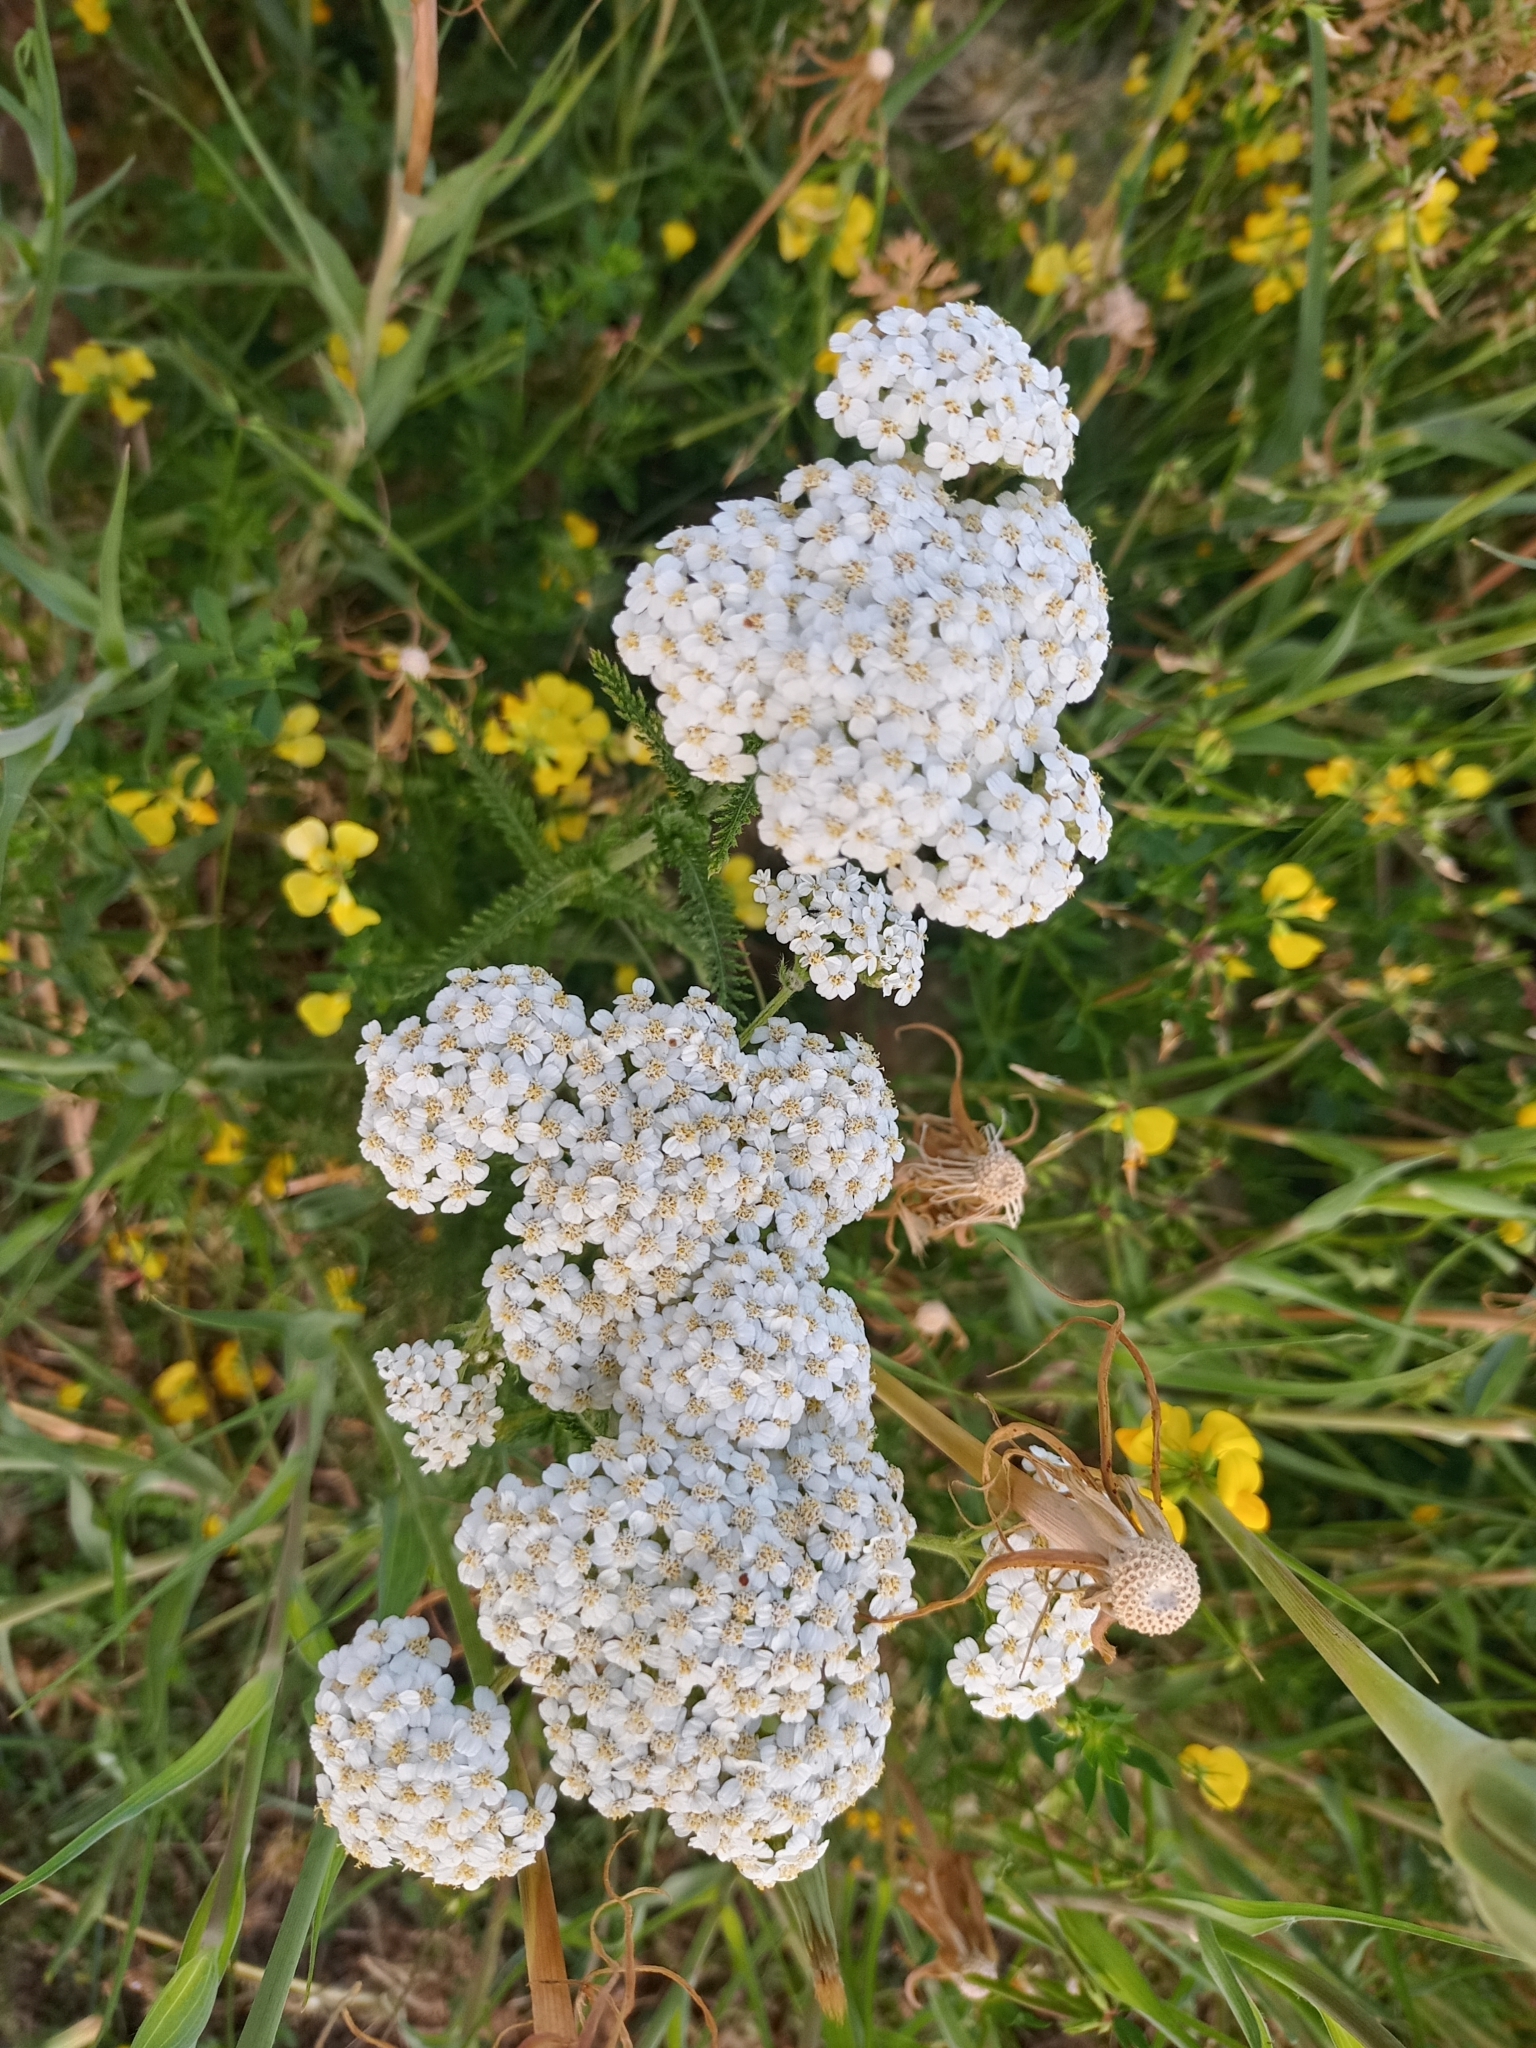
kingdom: Plantae
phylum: Tracheophyta
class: Magnoliopsida
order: Asterales
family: Asteraceae
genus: Achillea
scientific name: Achillea millefolium
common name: Yarrow
